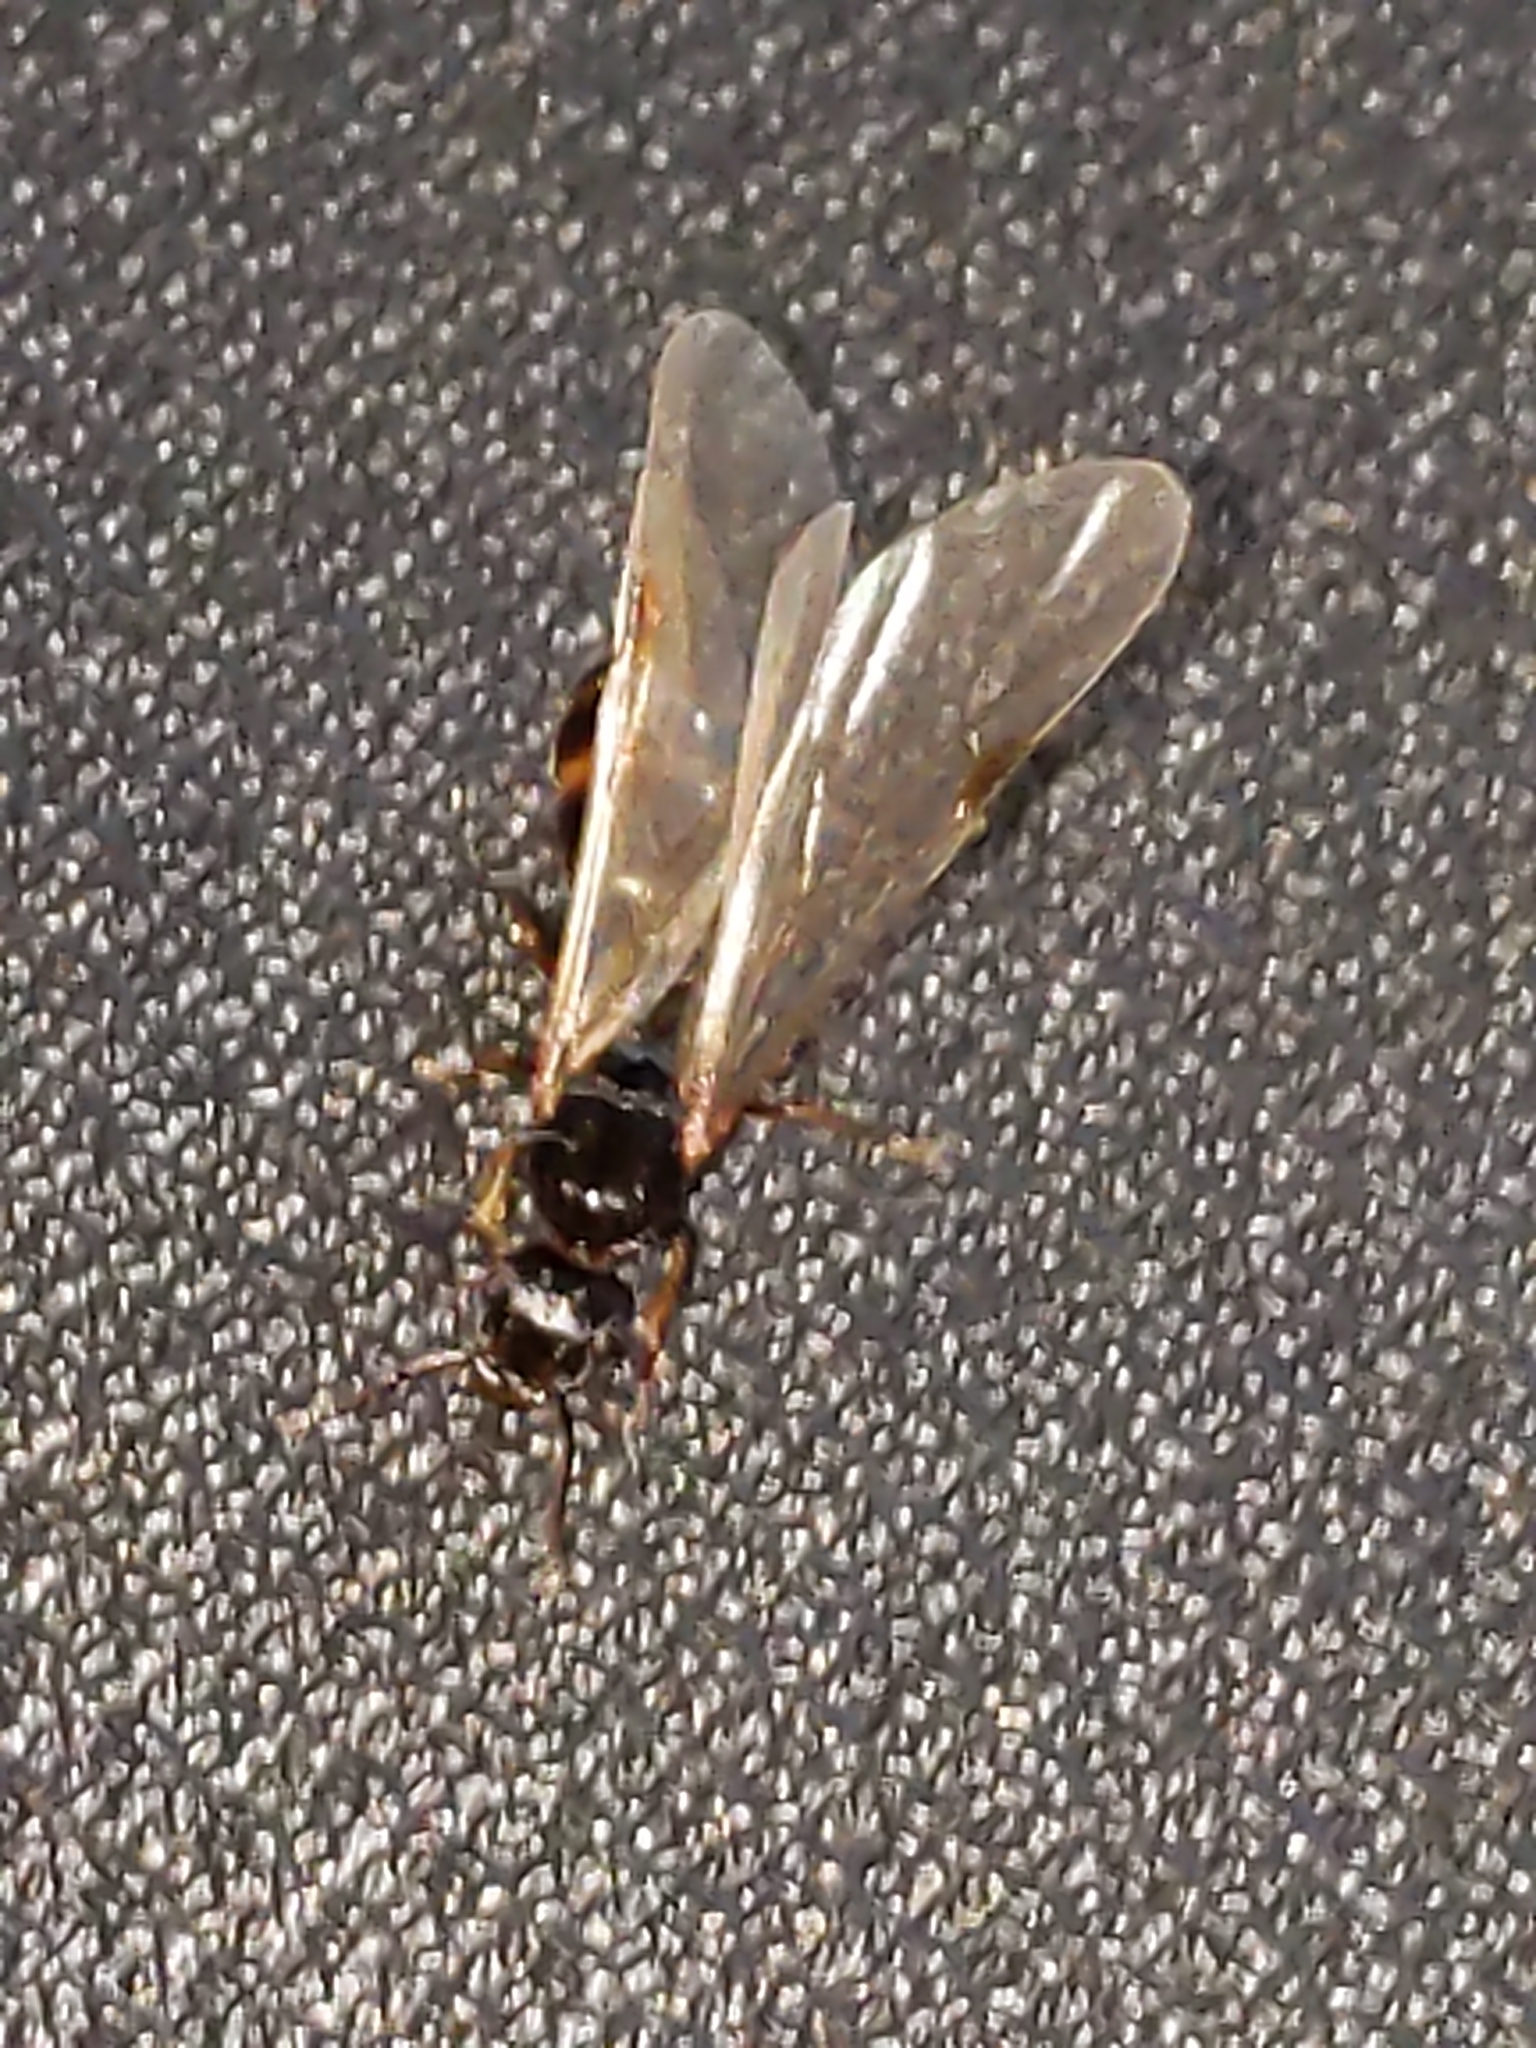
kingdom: Animalia
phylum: Arthropoda
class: Insecta
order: Hymenoptera
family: Formicidae
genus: Tetramorium
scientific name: Tetramorium immigrans
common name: Pavement ant
